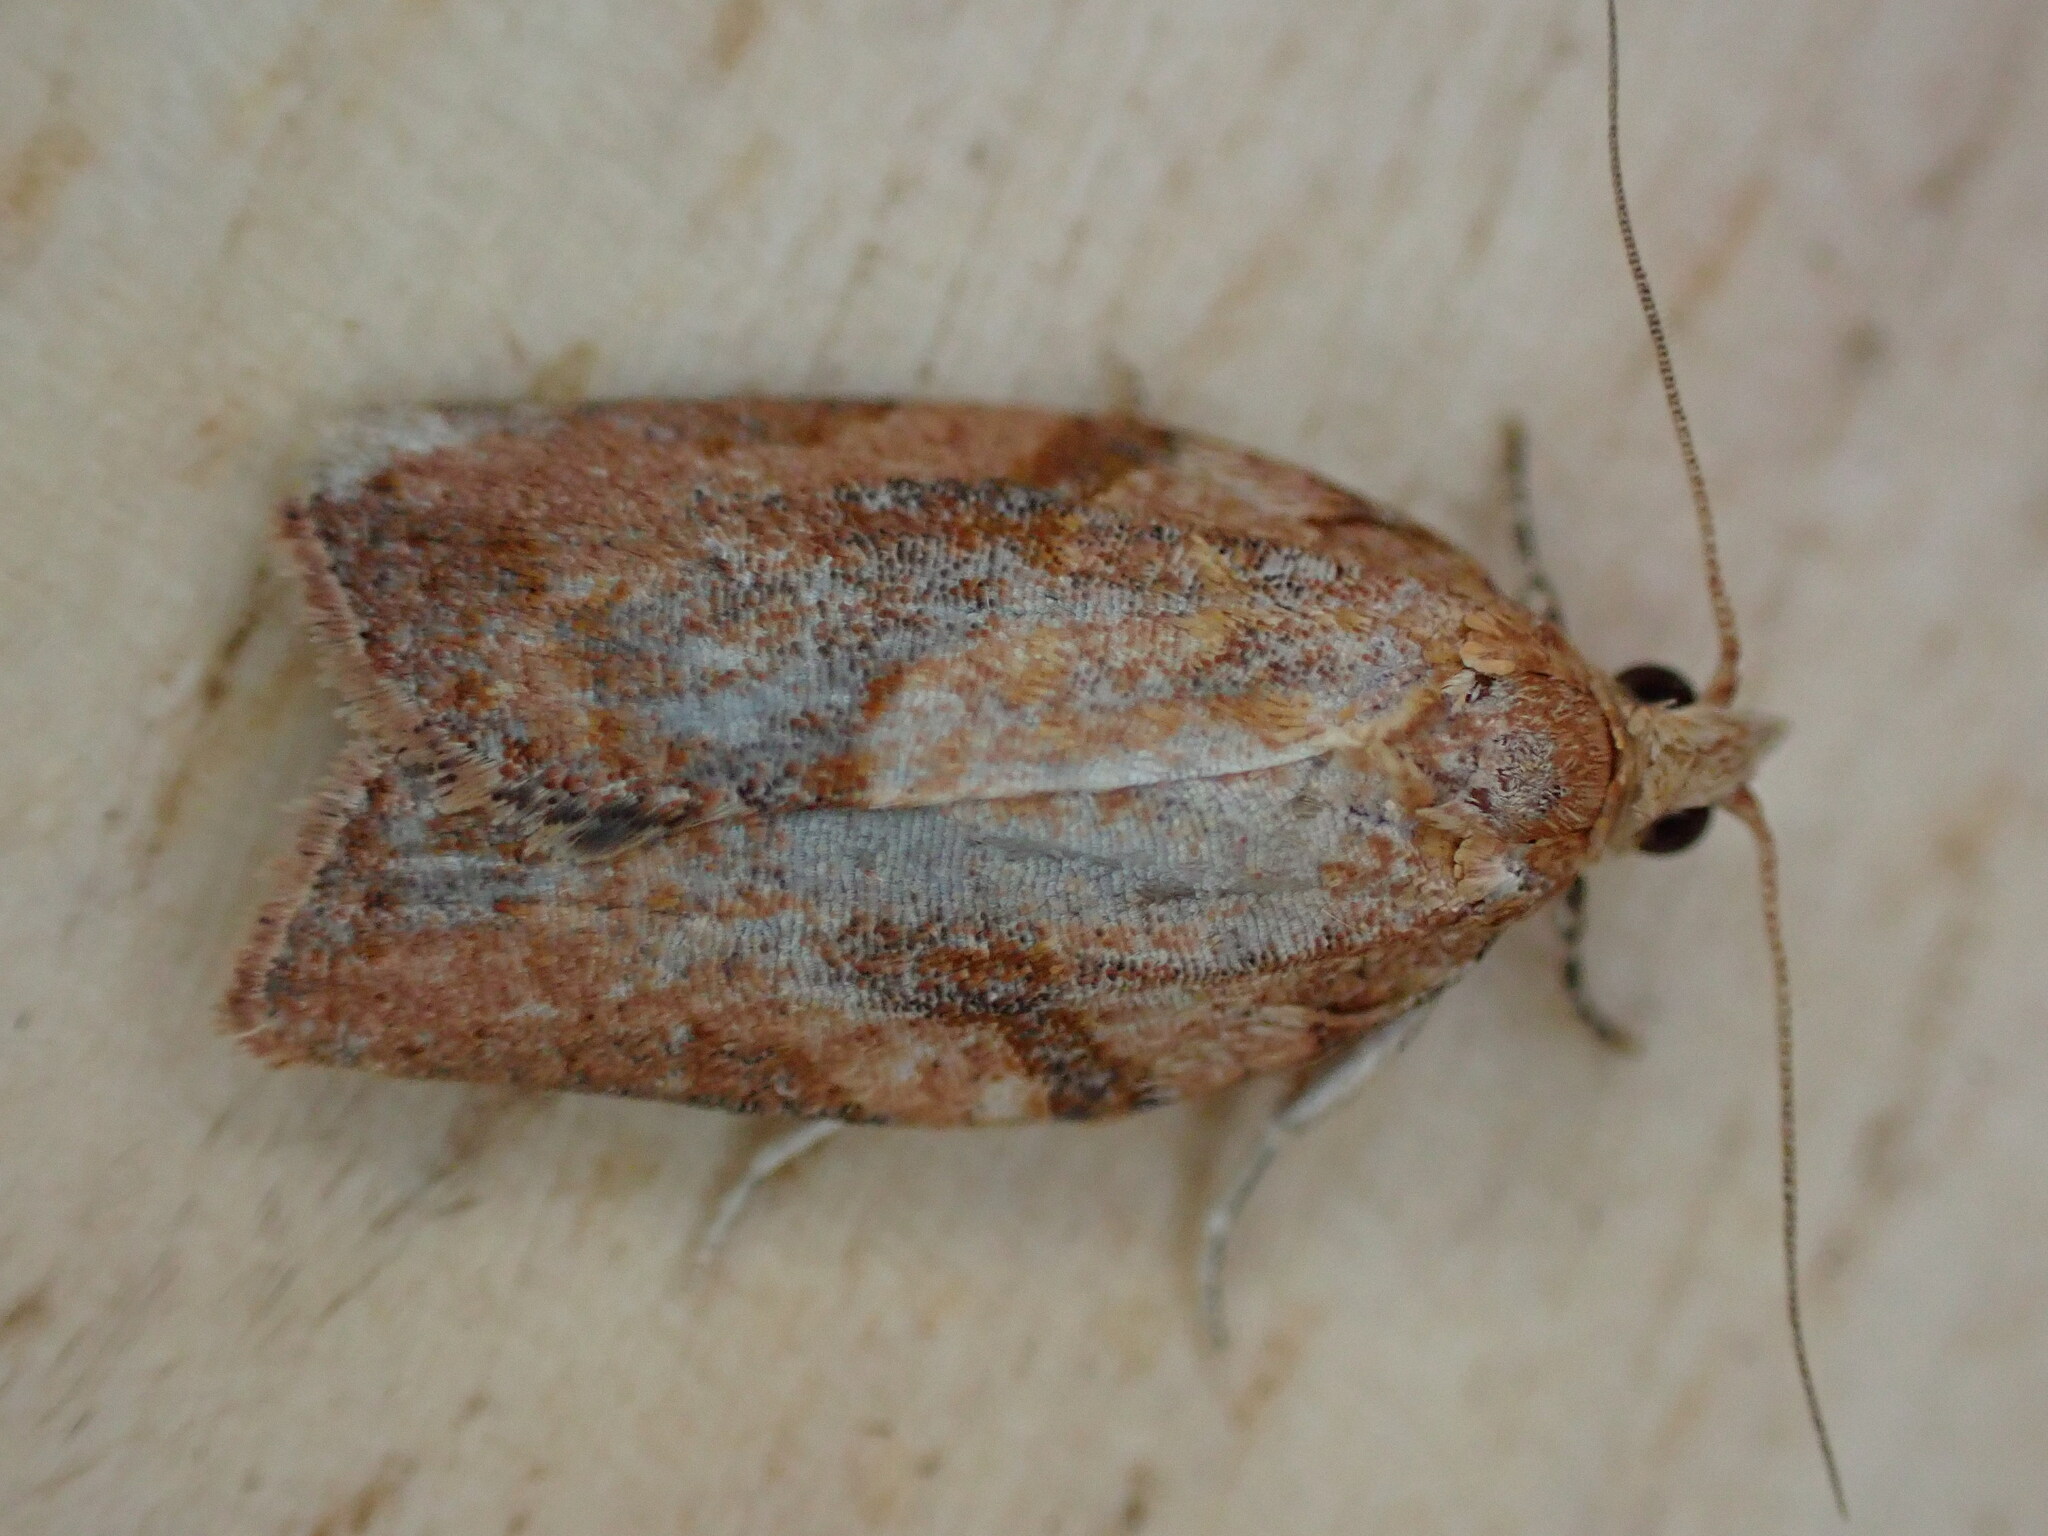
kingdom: Animalia
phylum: Arthropoda
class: Insecta
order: Lepidoptera
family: Tortricidae
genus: Epiphyas
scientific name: Epiphyas postvittana
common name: Light brown apple moth
